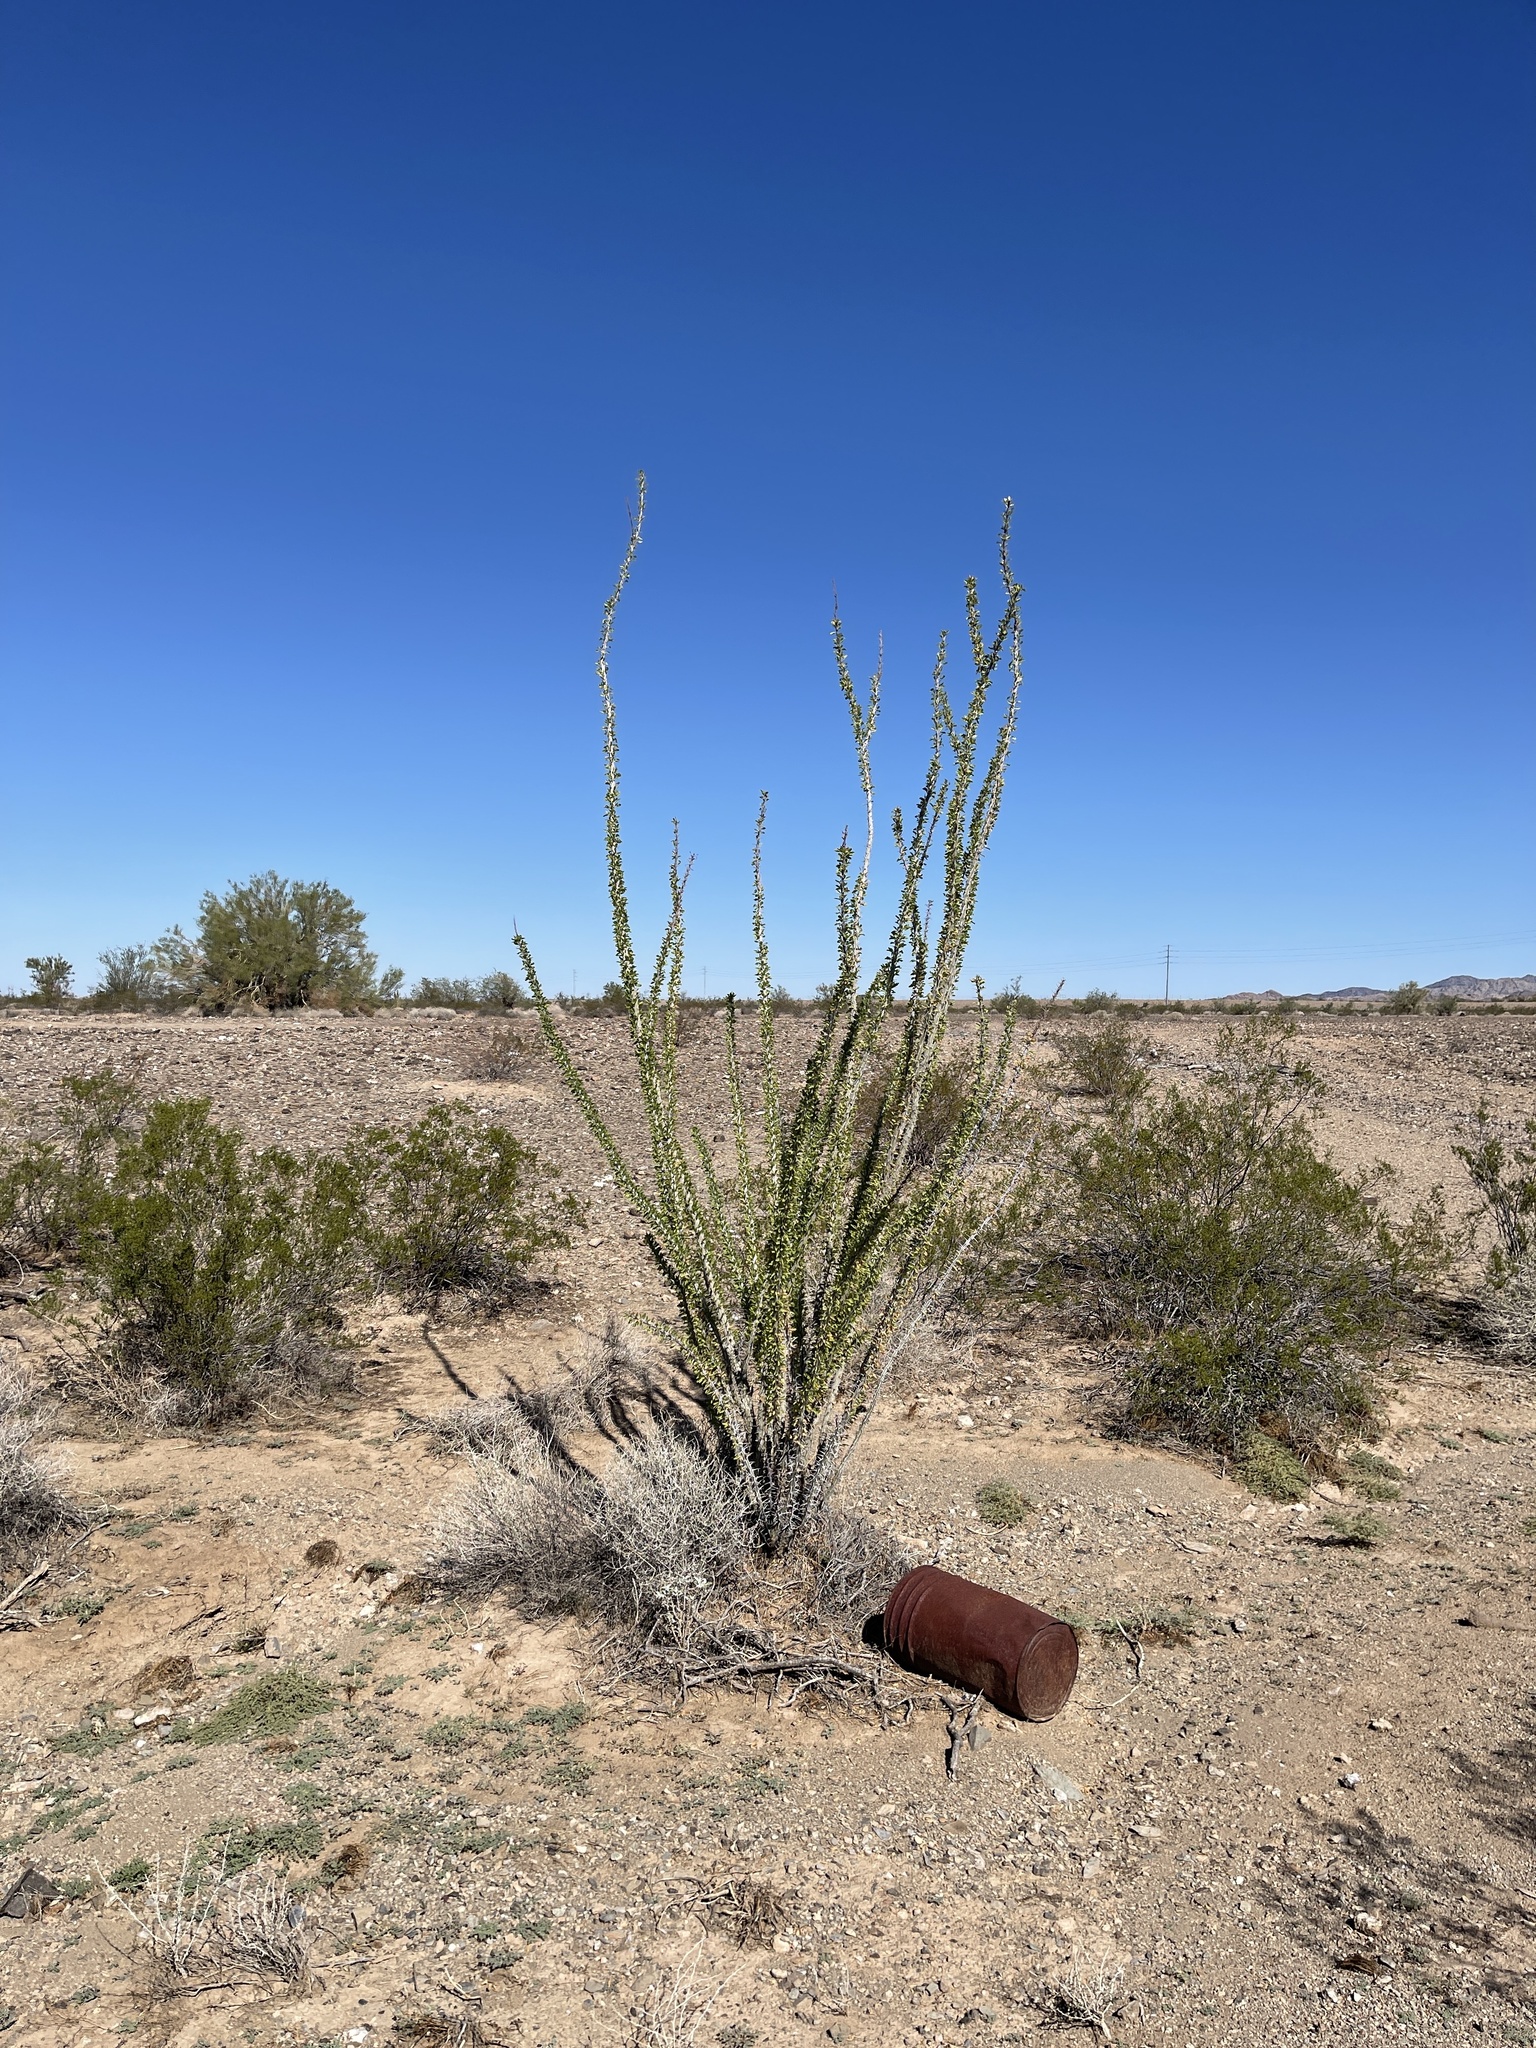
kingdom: Plantae
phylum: Tracheophyta
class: Magnoliopsida
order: Ericales
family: Fouquieriaceae
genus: Fouquieria
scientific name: Fouquieria splendens
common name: Vine-cactus
